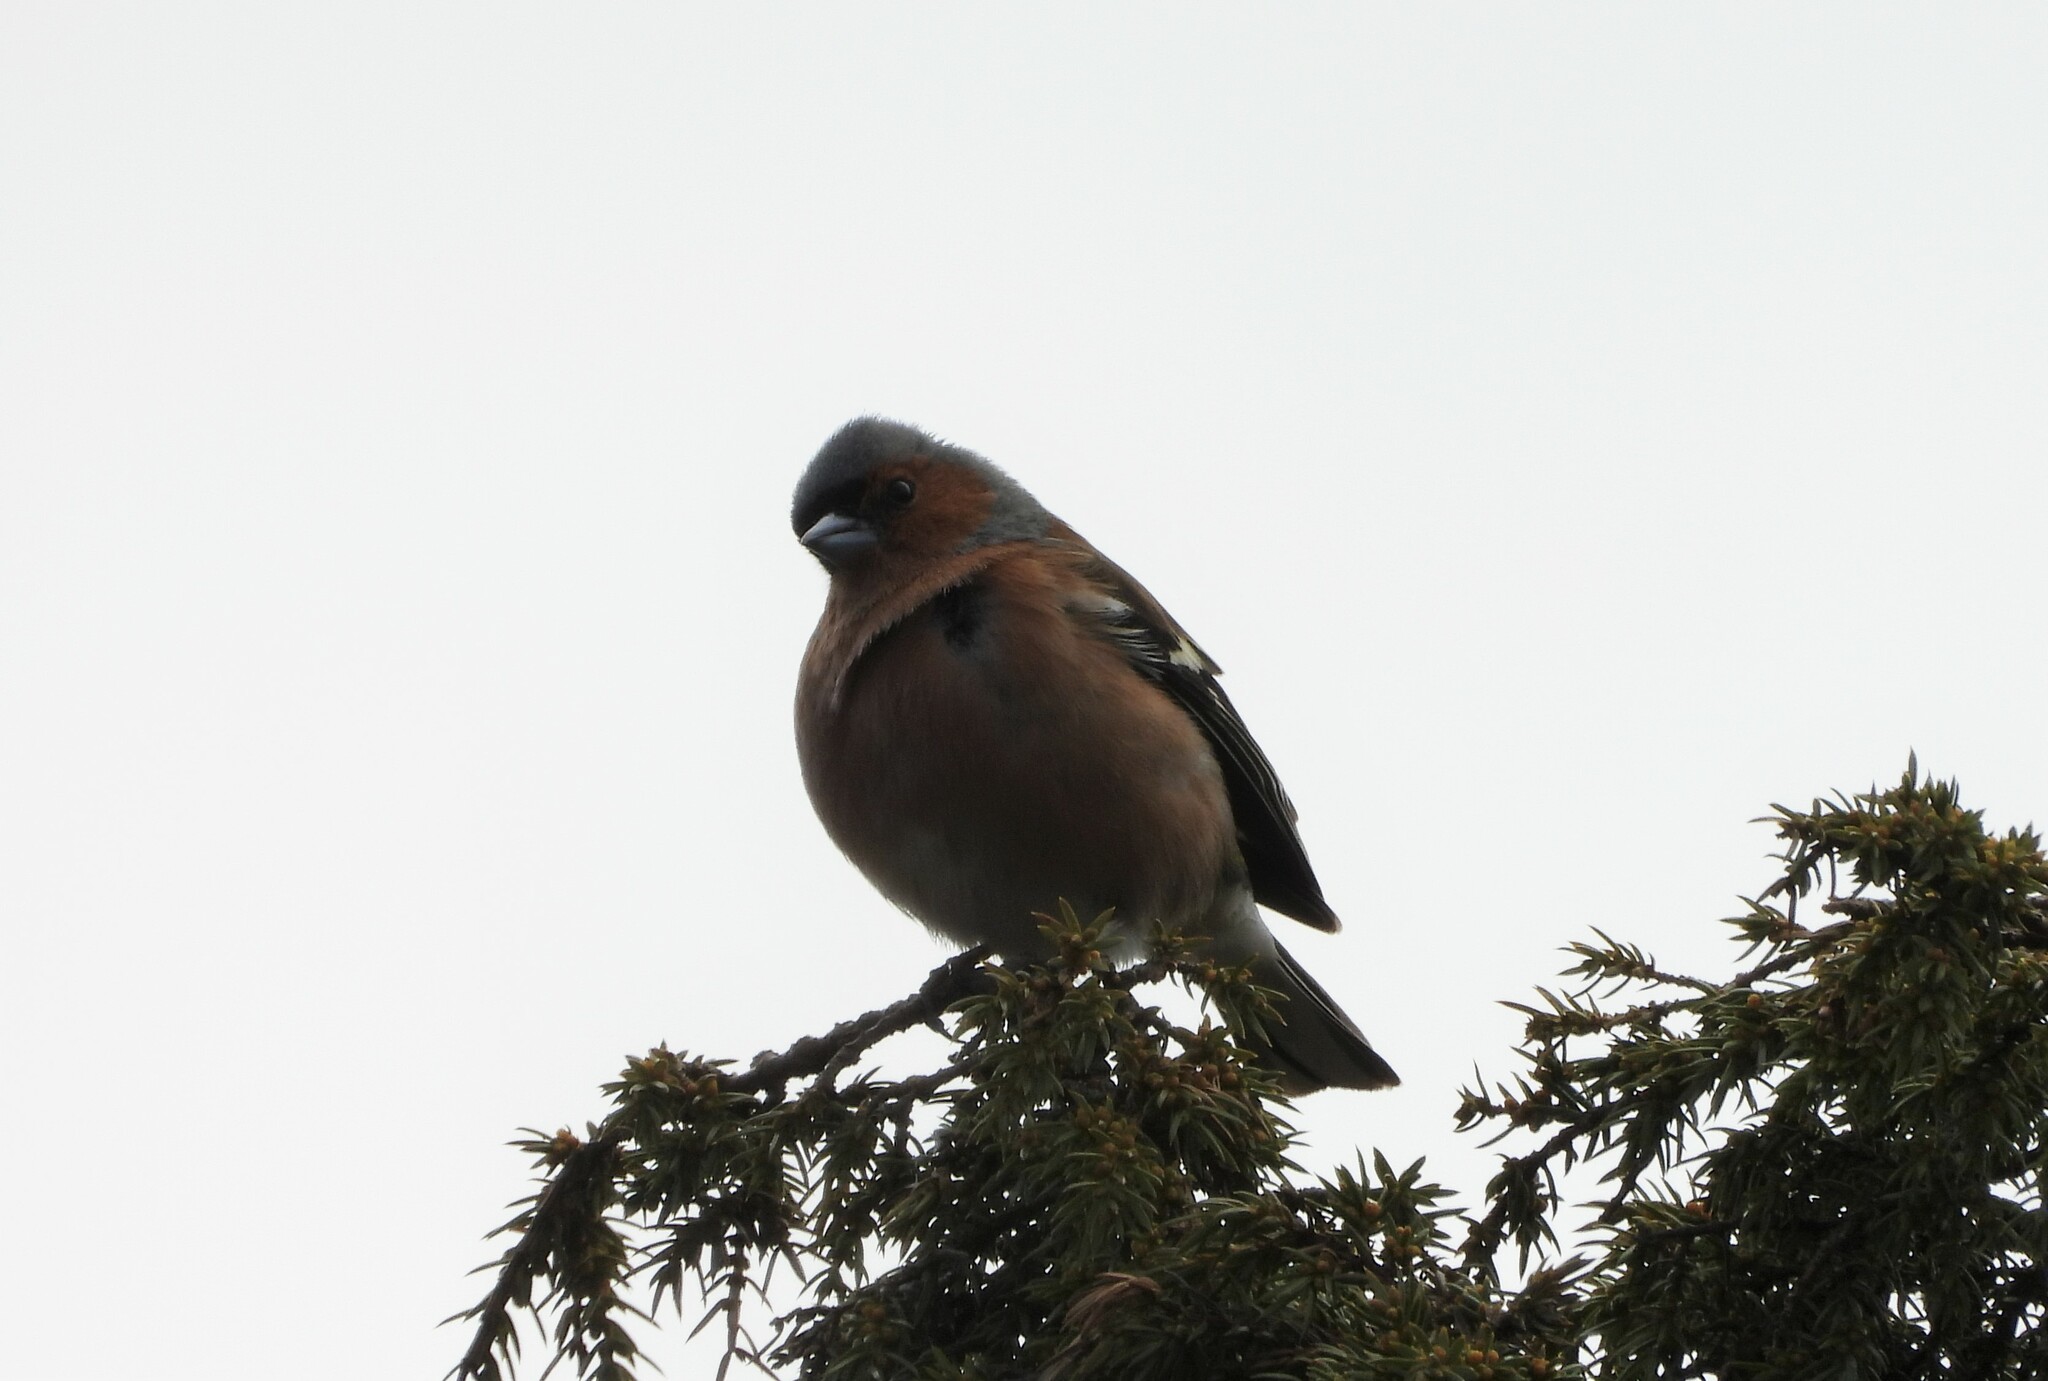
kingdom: Animalia
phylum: Chordata
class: Aves
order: Passeriformes
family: Fringillidae
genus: Fringilla
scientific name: Fringilla coelebs
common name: Common chaffinch
